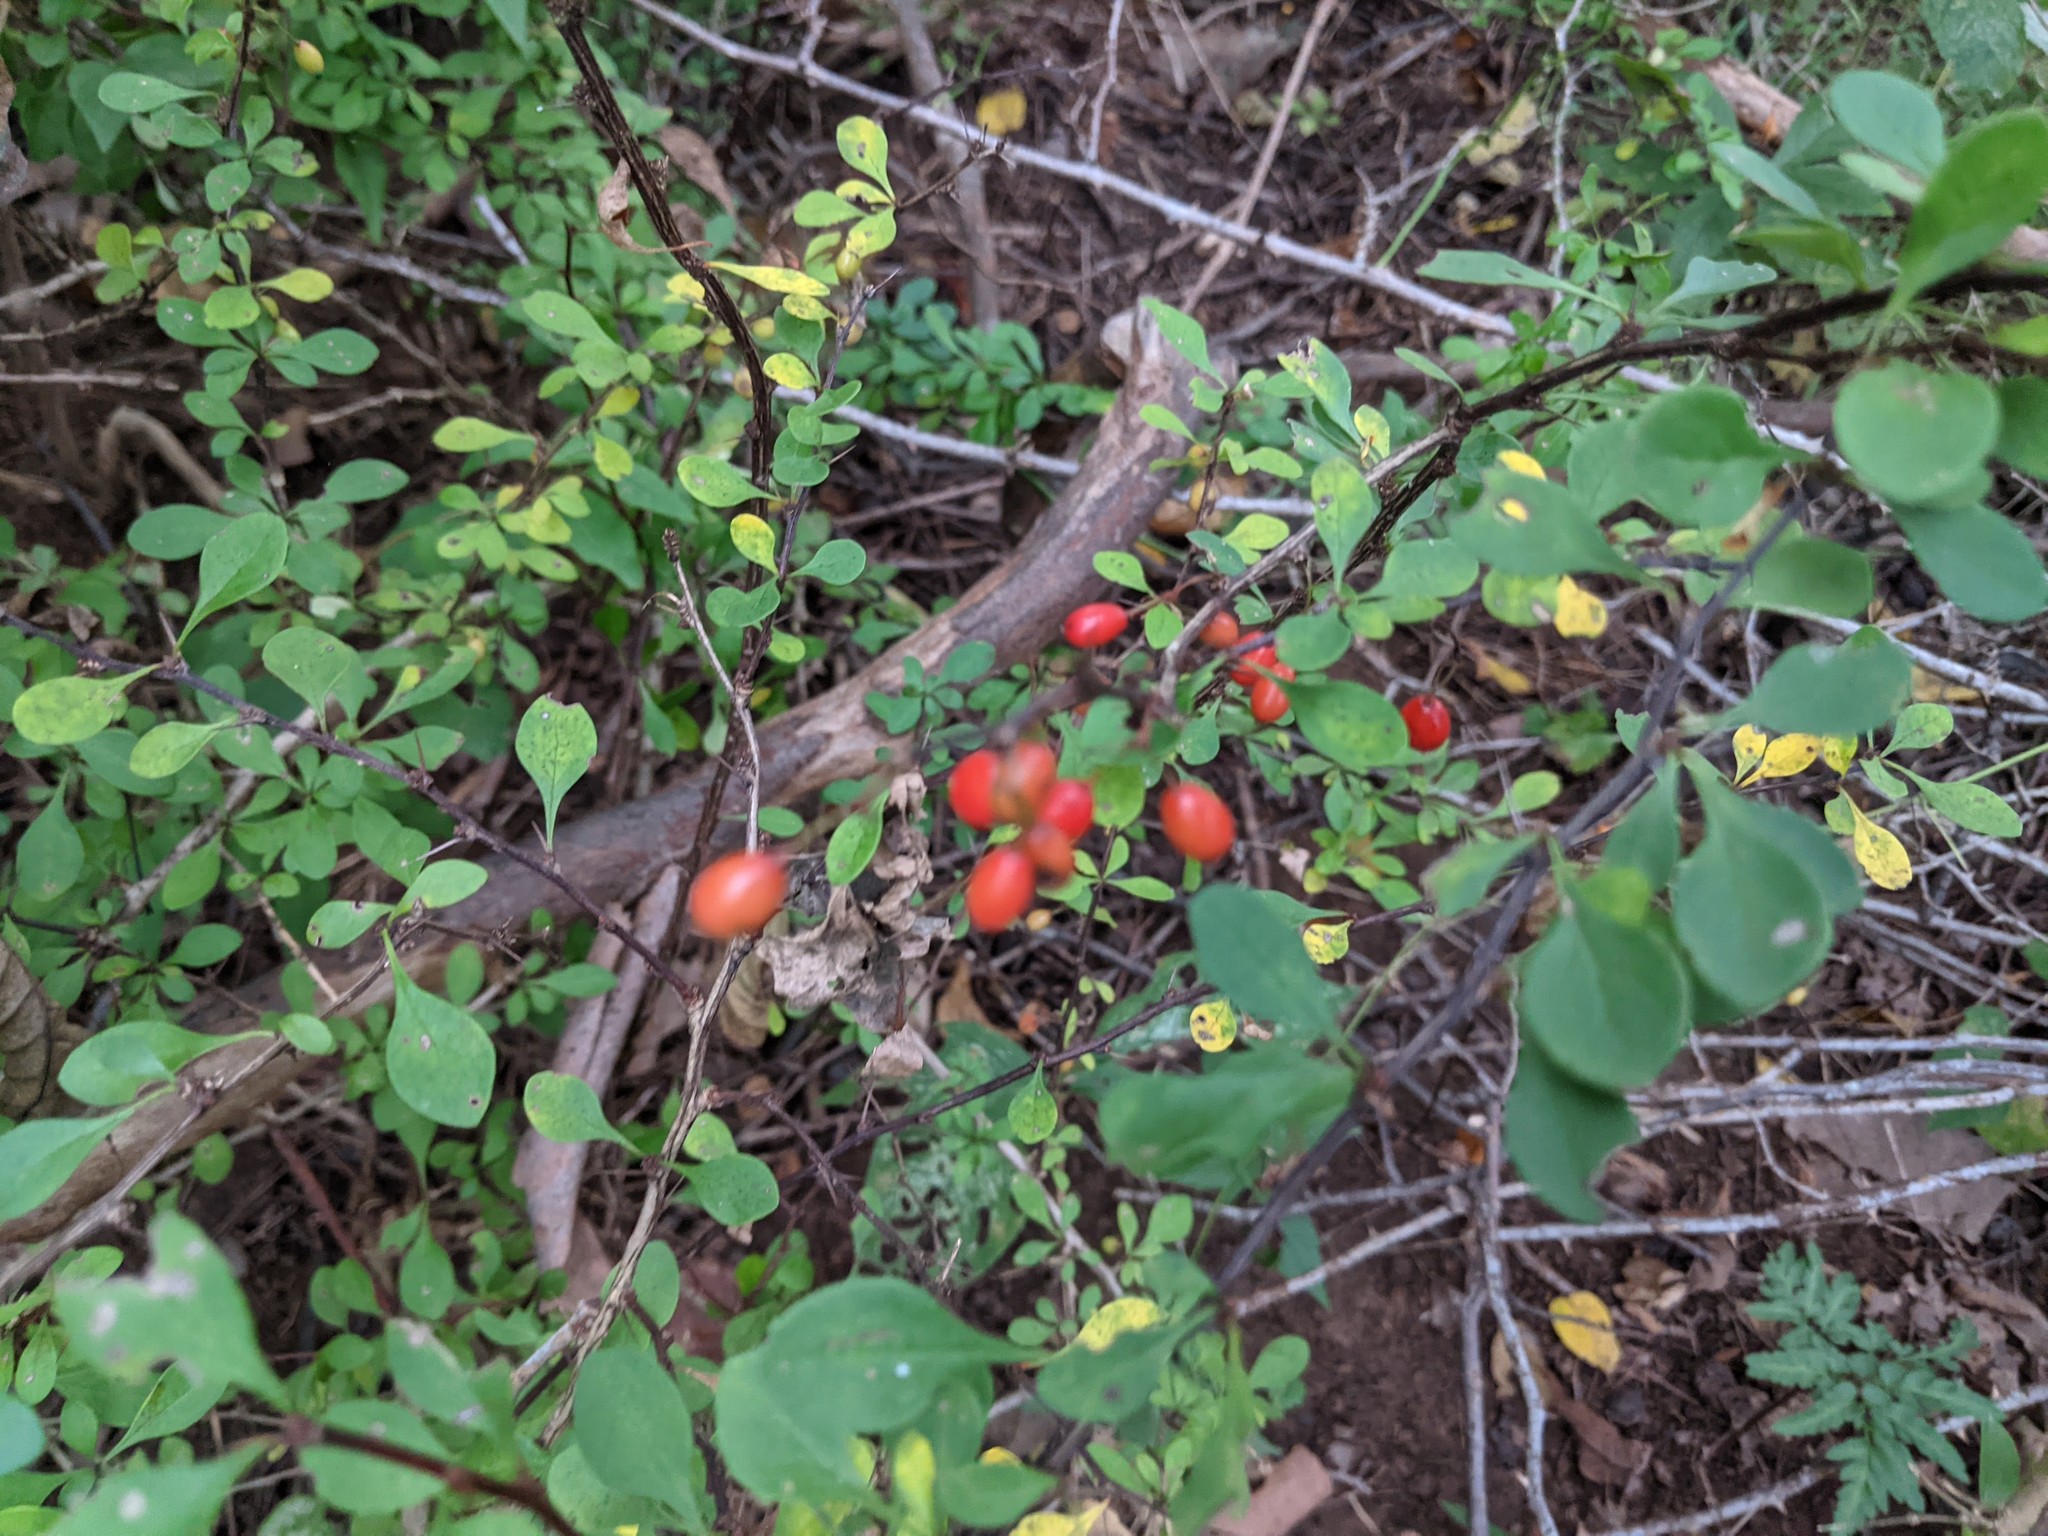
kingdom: Plantae
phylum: Tracheophyta
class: Magnoliopsida
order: Ranunculales
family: Berberidaceae
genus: Berberis
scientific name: Berberis thunbergii
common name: Japanese barberry
